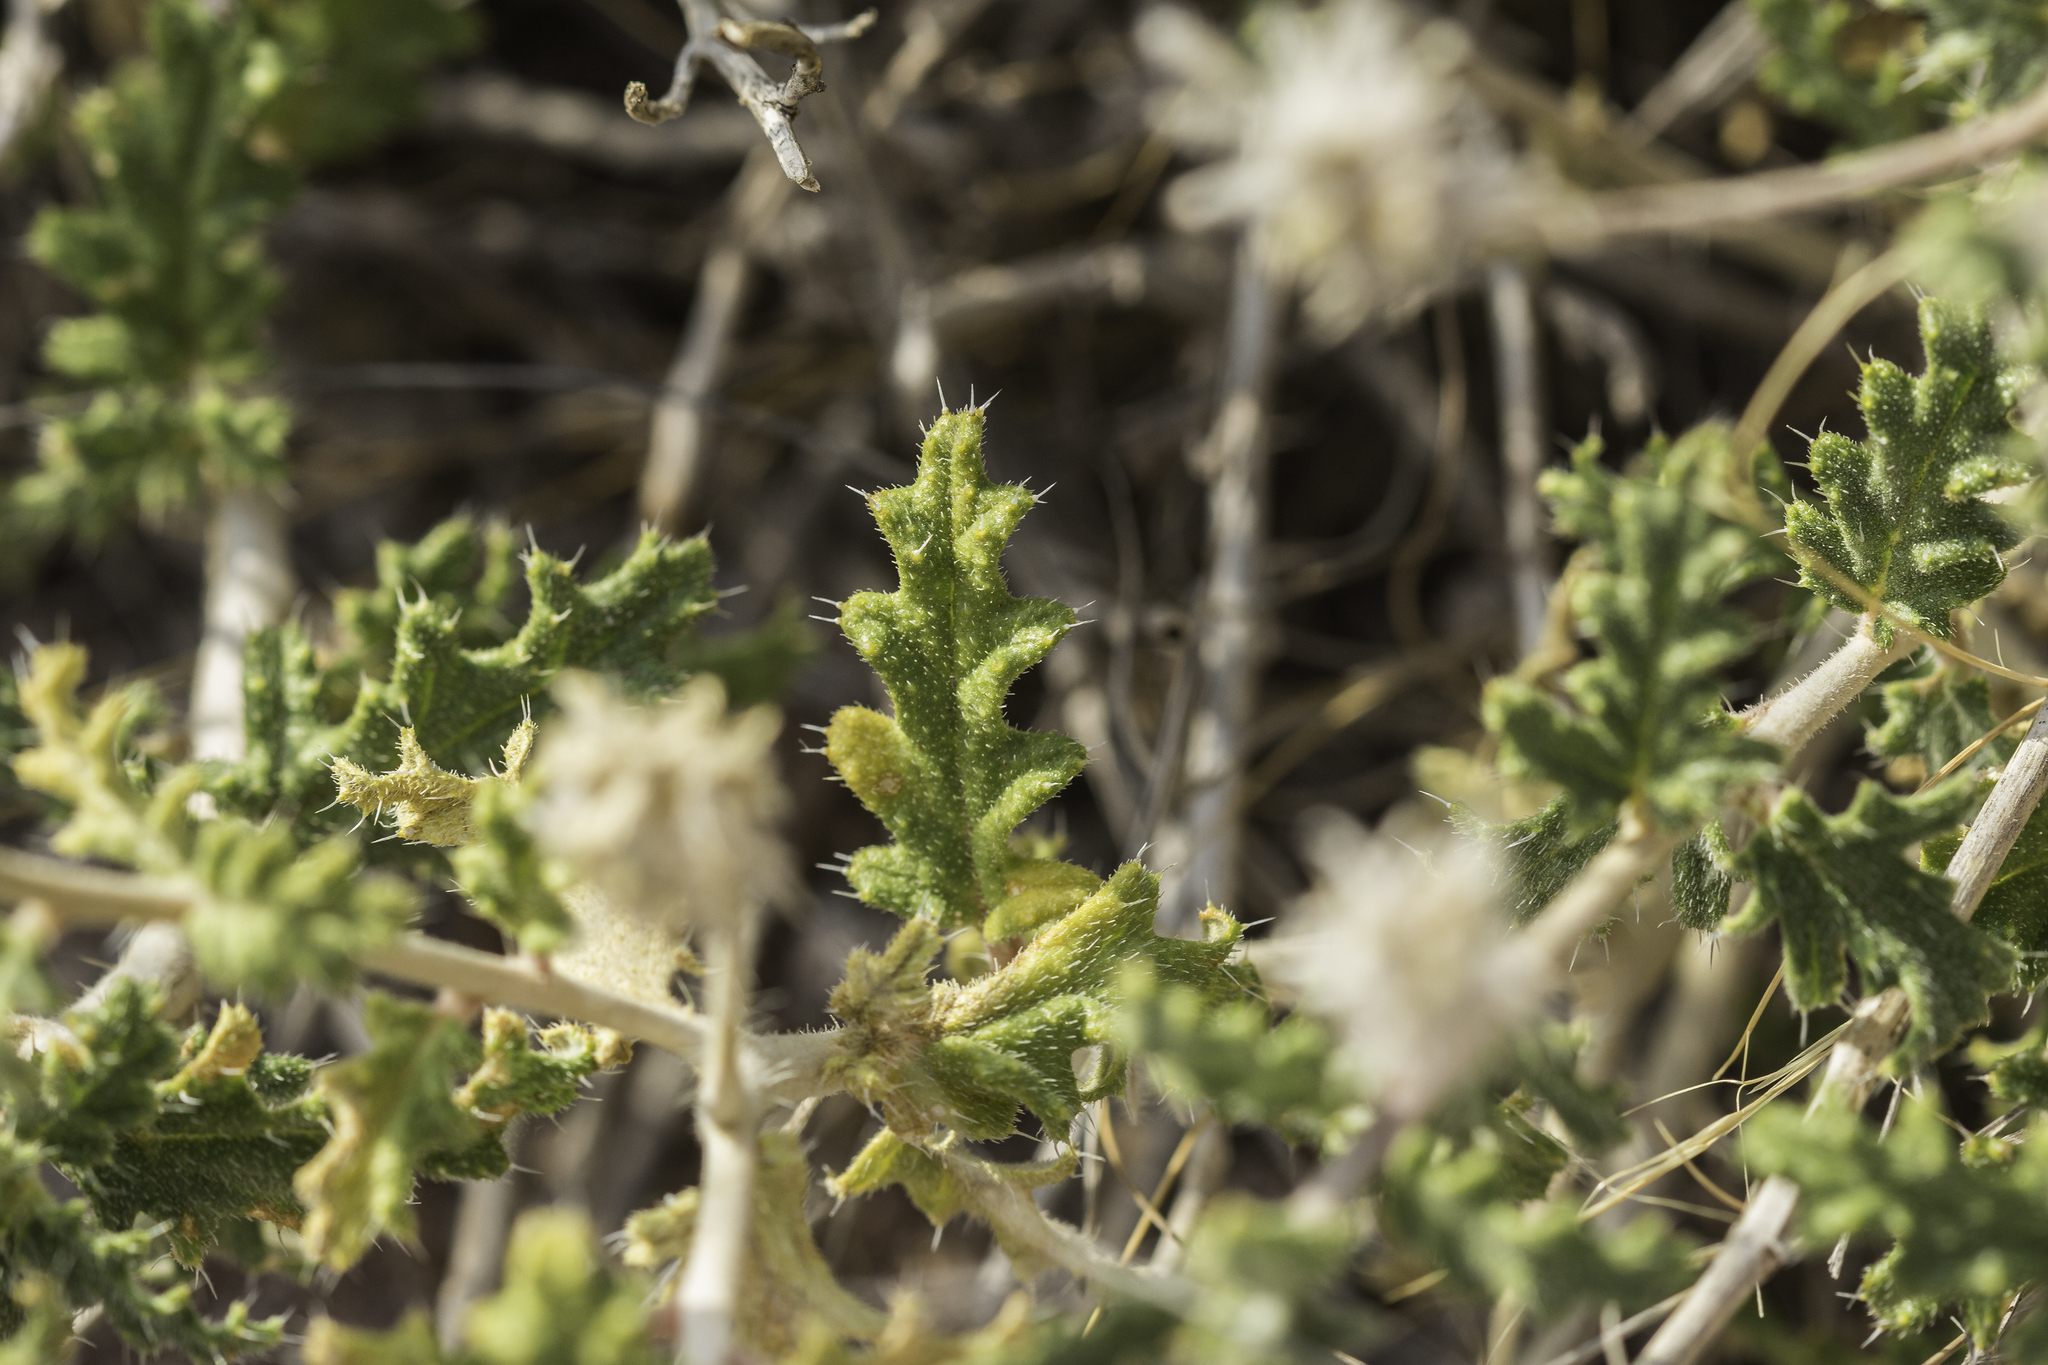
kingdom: Plantae
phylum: Tracheophyta
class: Magnoliopsida
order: Cornales
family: Loasaceae
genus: Cevallia
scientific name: Cevallia sinuata
